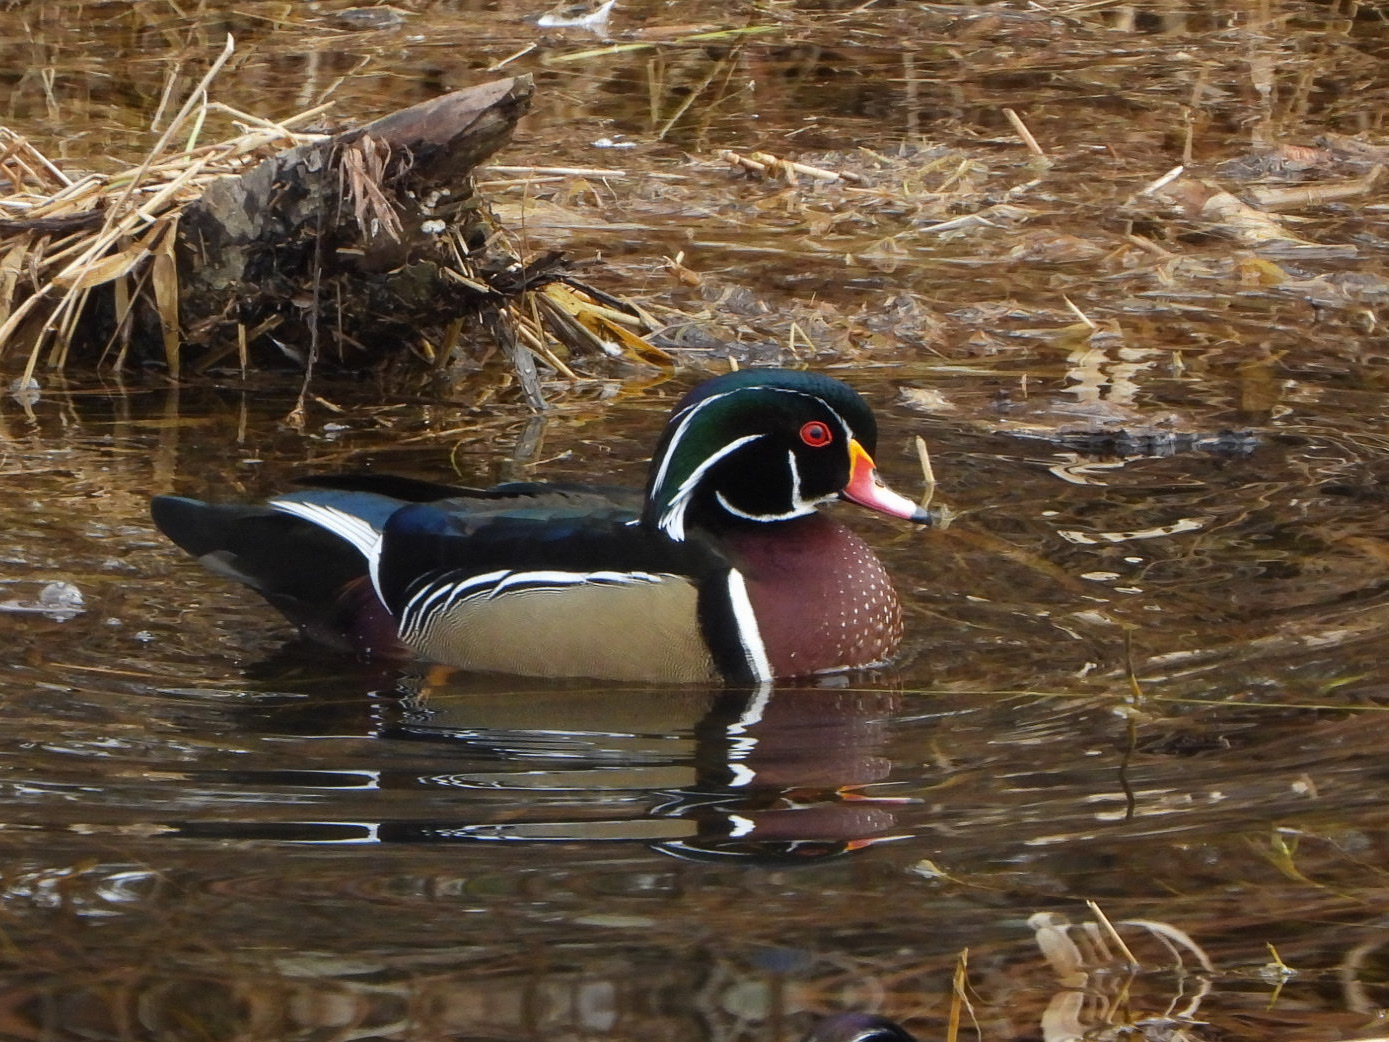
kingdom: Animalia
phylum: Chordata
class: Aves
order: Anseriformes
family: Anatidae
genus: Aix
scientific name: Aix sponsa
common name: Wood duck
